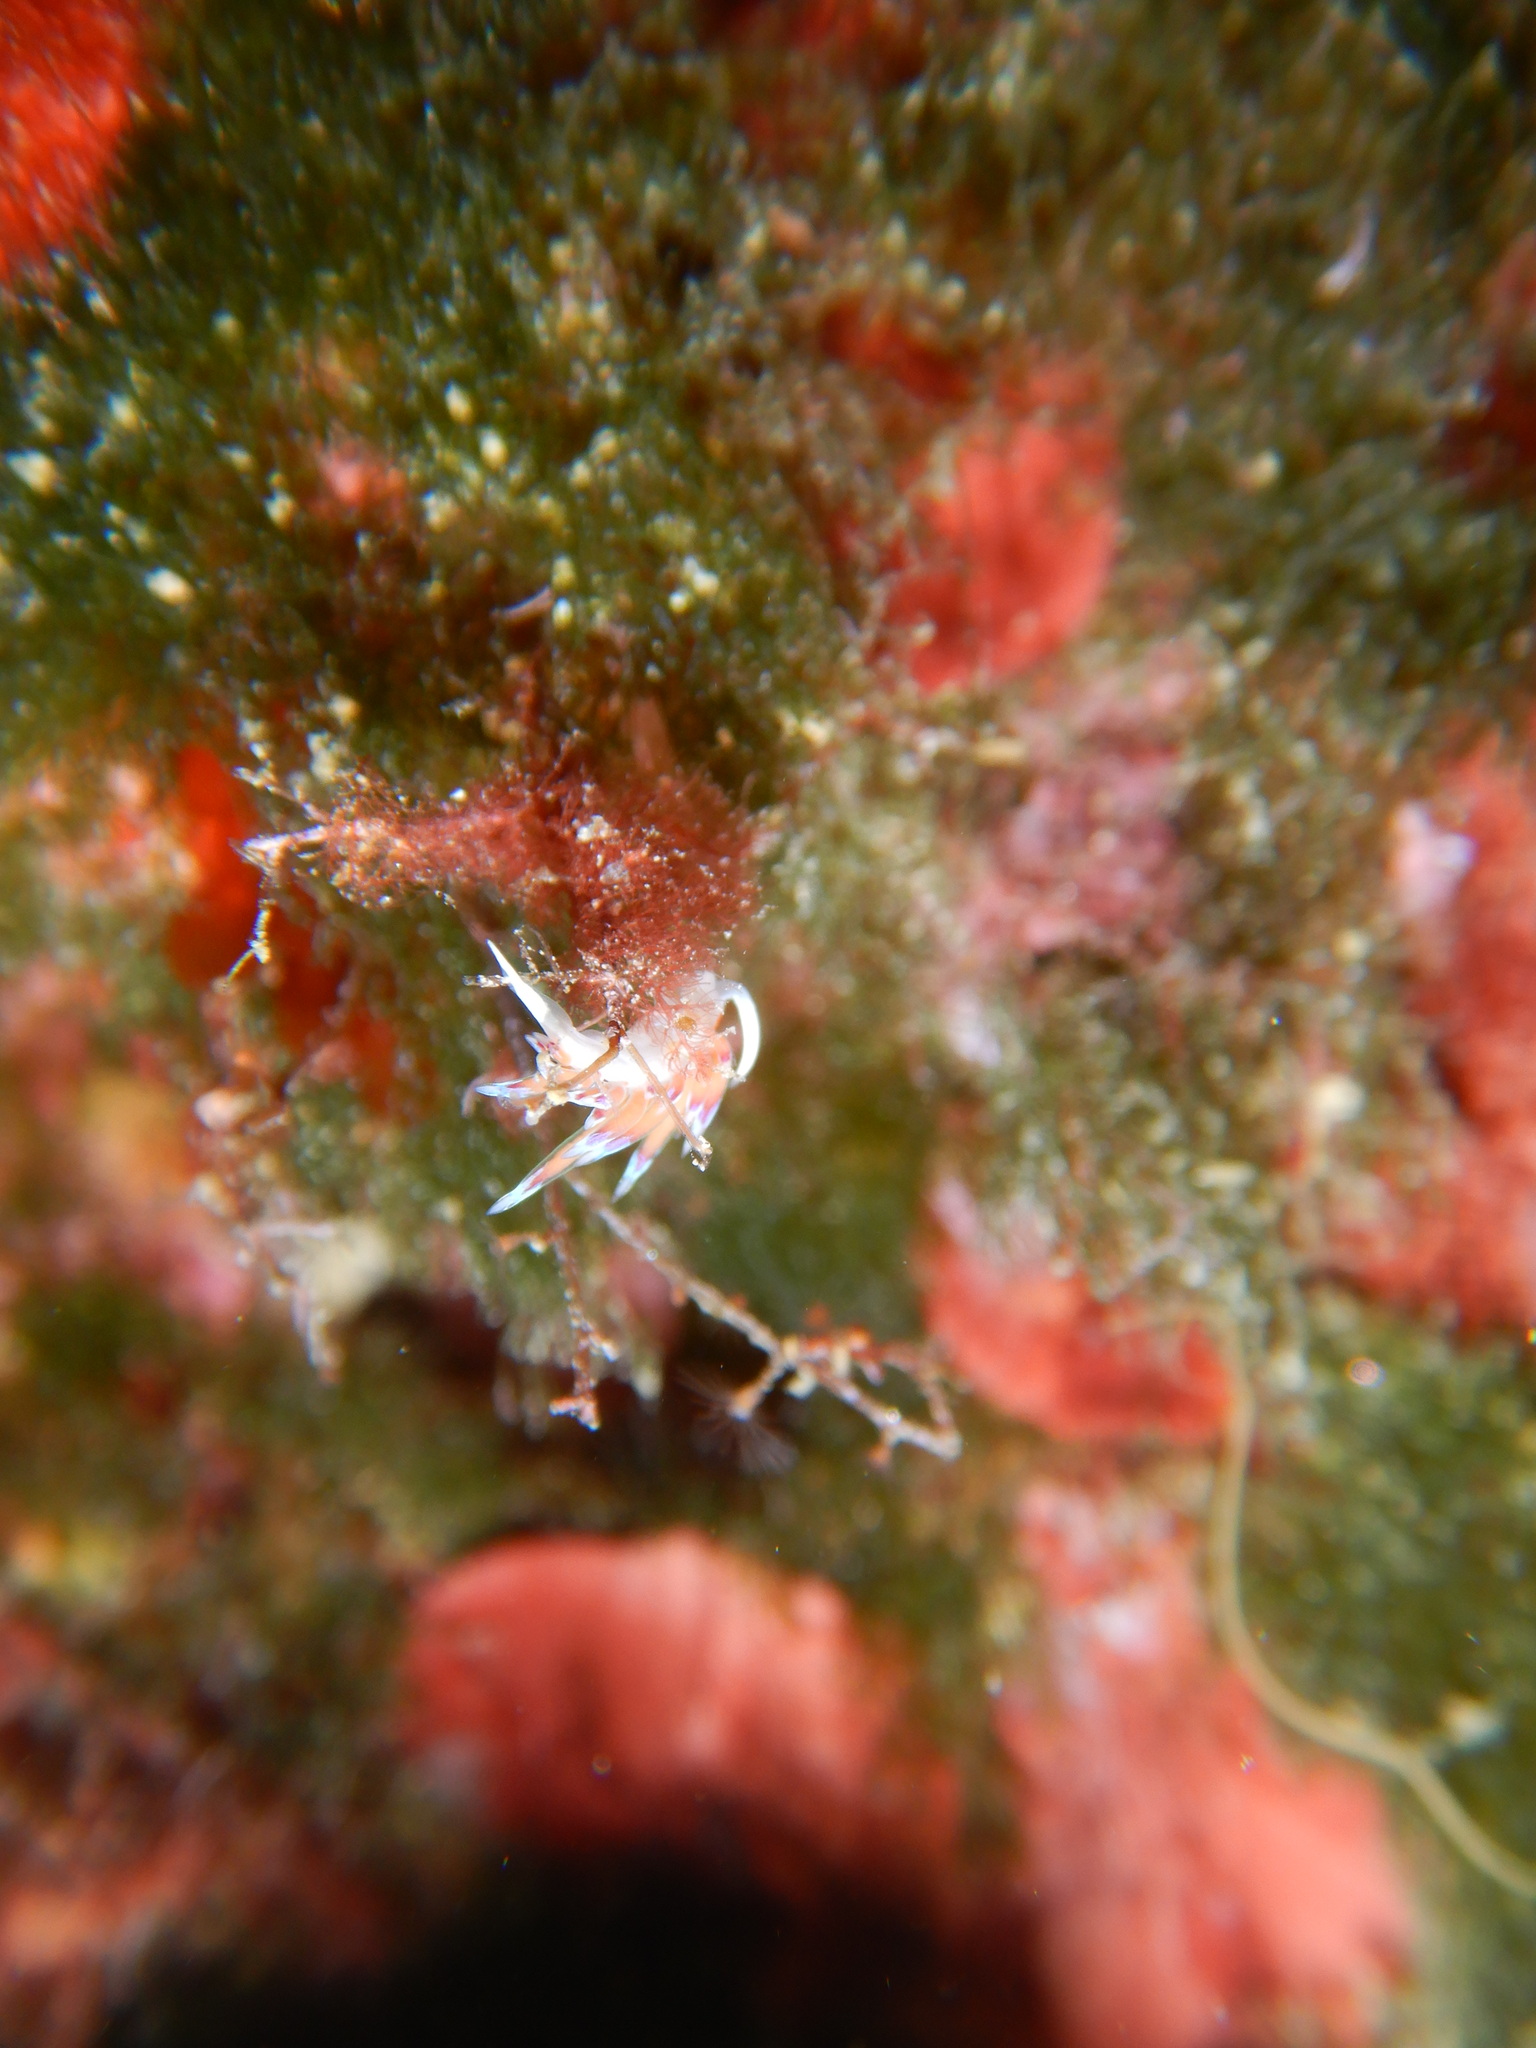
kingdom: Animalia
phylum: Mollusca
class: Gastropoda
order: Nudibranchia
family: Facelinidae
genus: Cratena
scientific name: Cratena peregrina
